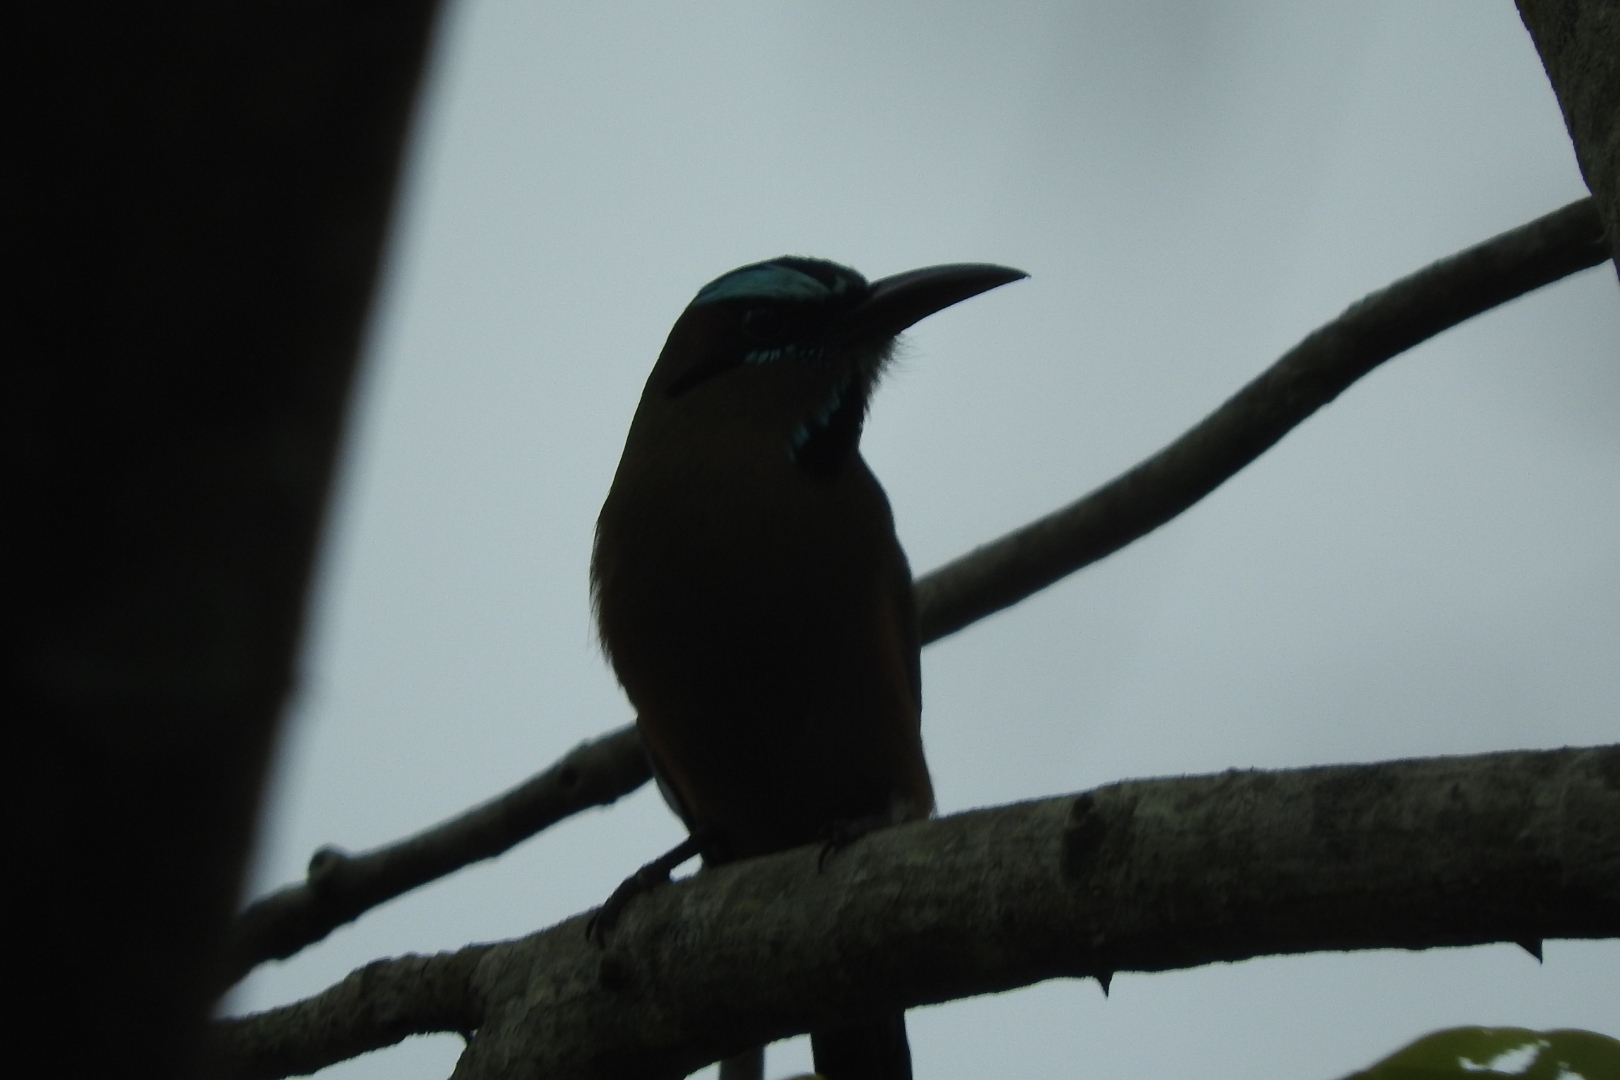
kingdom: Animalia
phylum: Chordata
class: Aves
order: Coraciiformes
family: Momotidae
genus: Eumomota
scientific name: Eumomota superciliosa
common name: Turquoise-browed motmot
